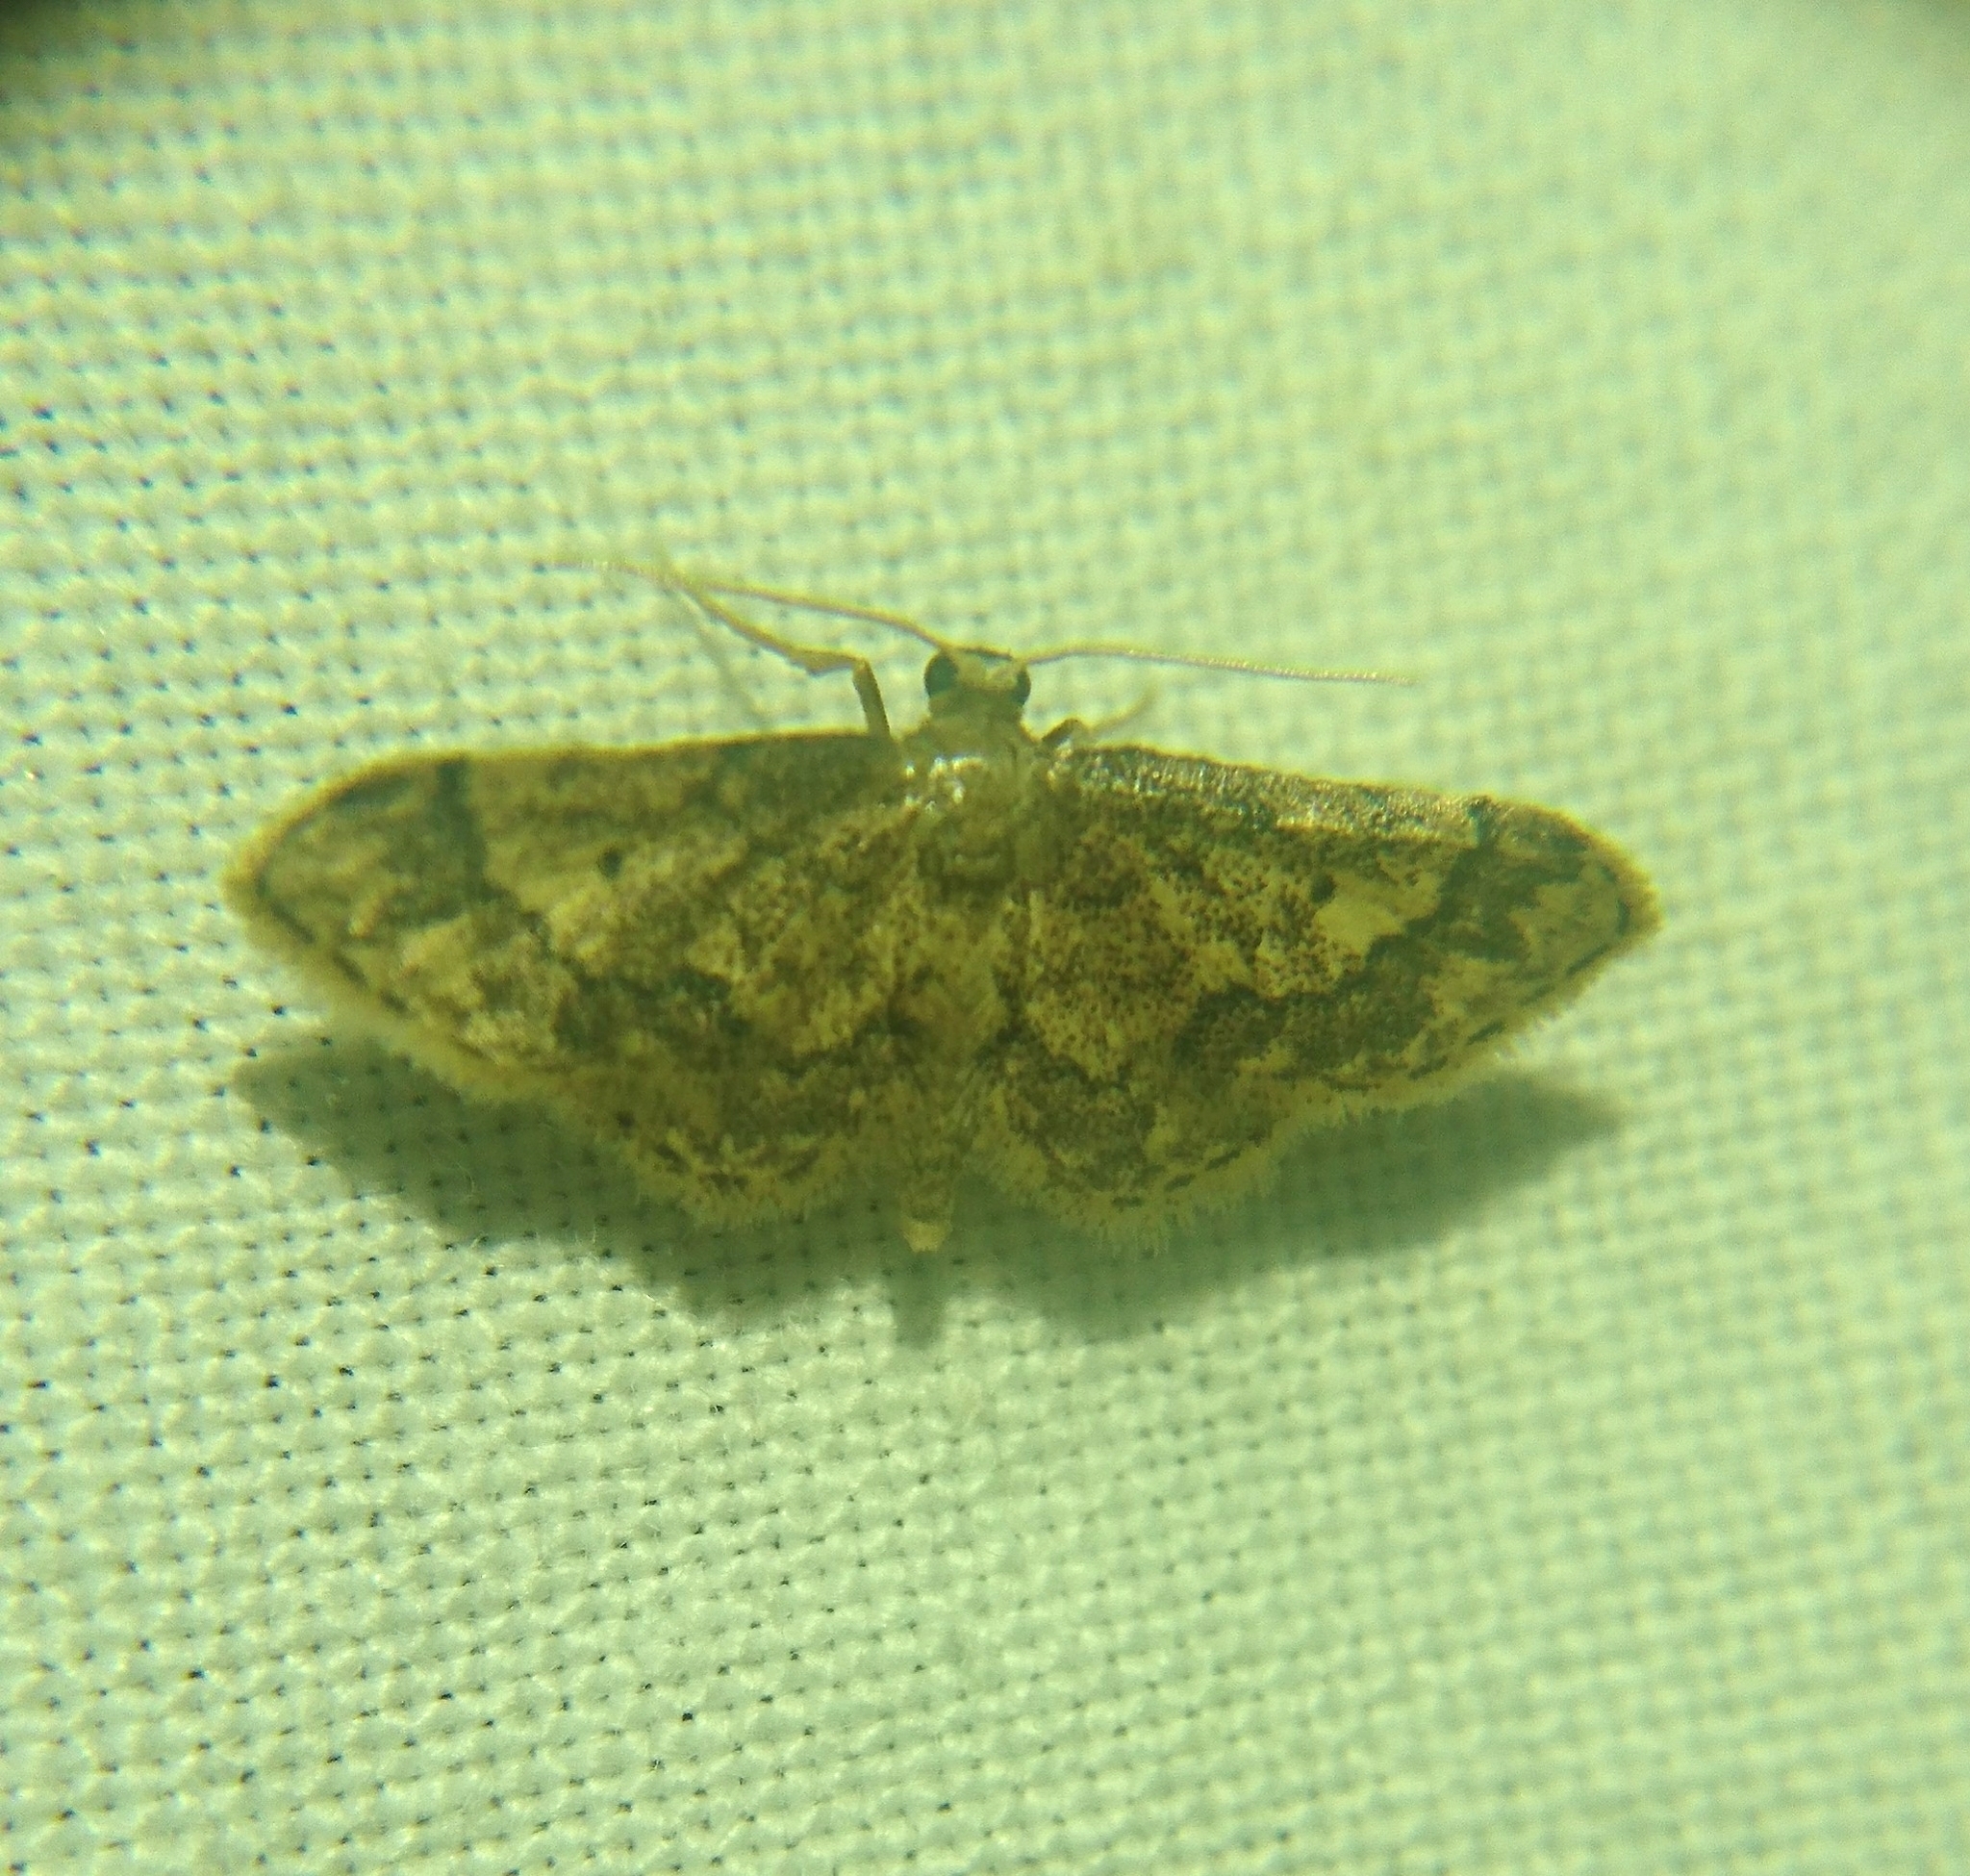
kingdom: Animalia
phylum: Arthropoda
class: Insecta
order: Lepidoptera
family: Geometridae
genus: Idaea
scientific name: Idaea celtima
